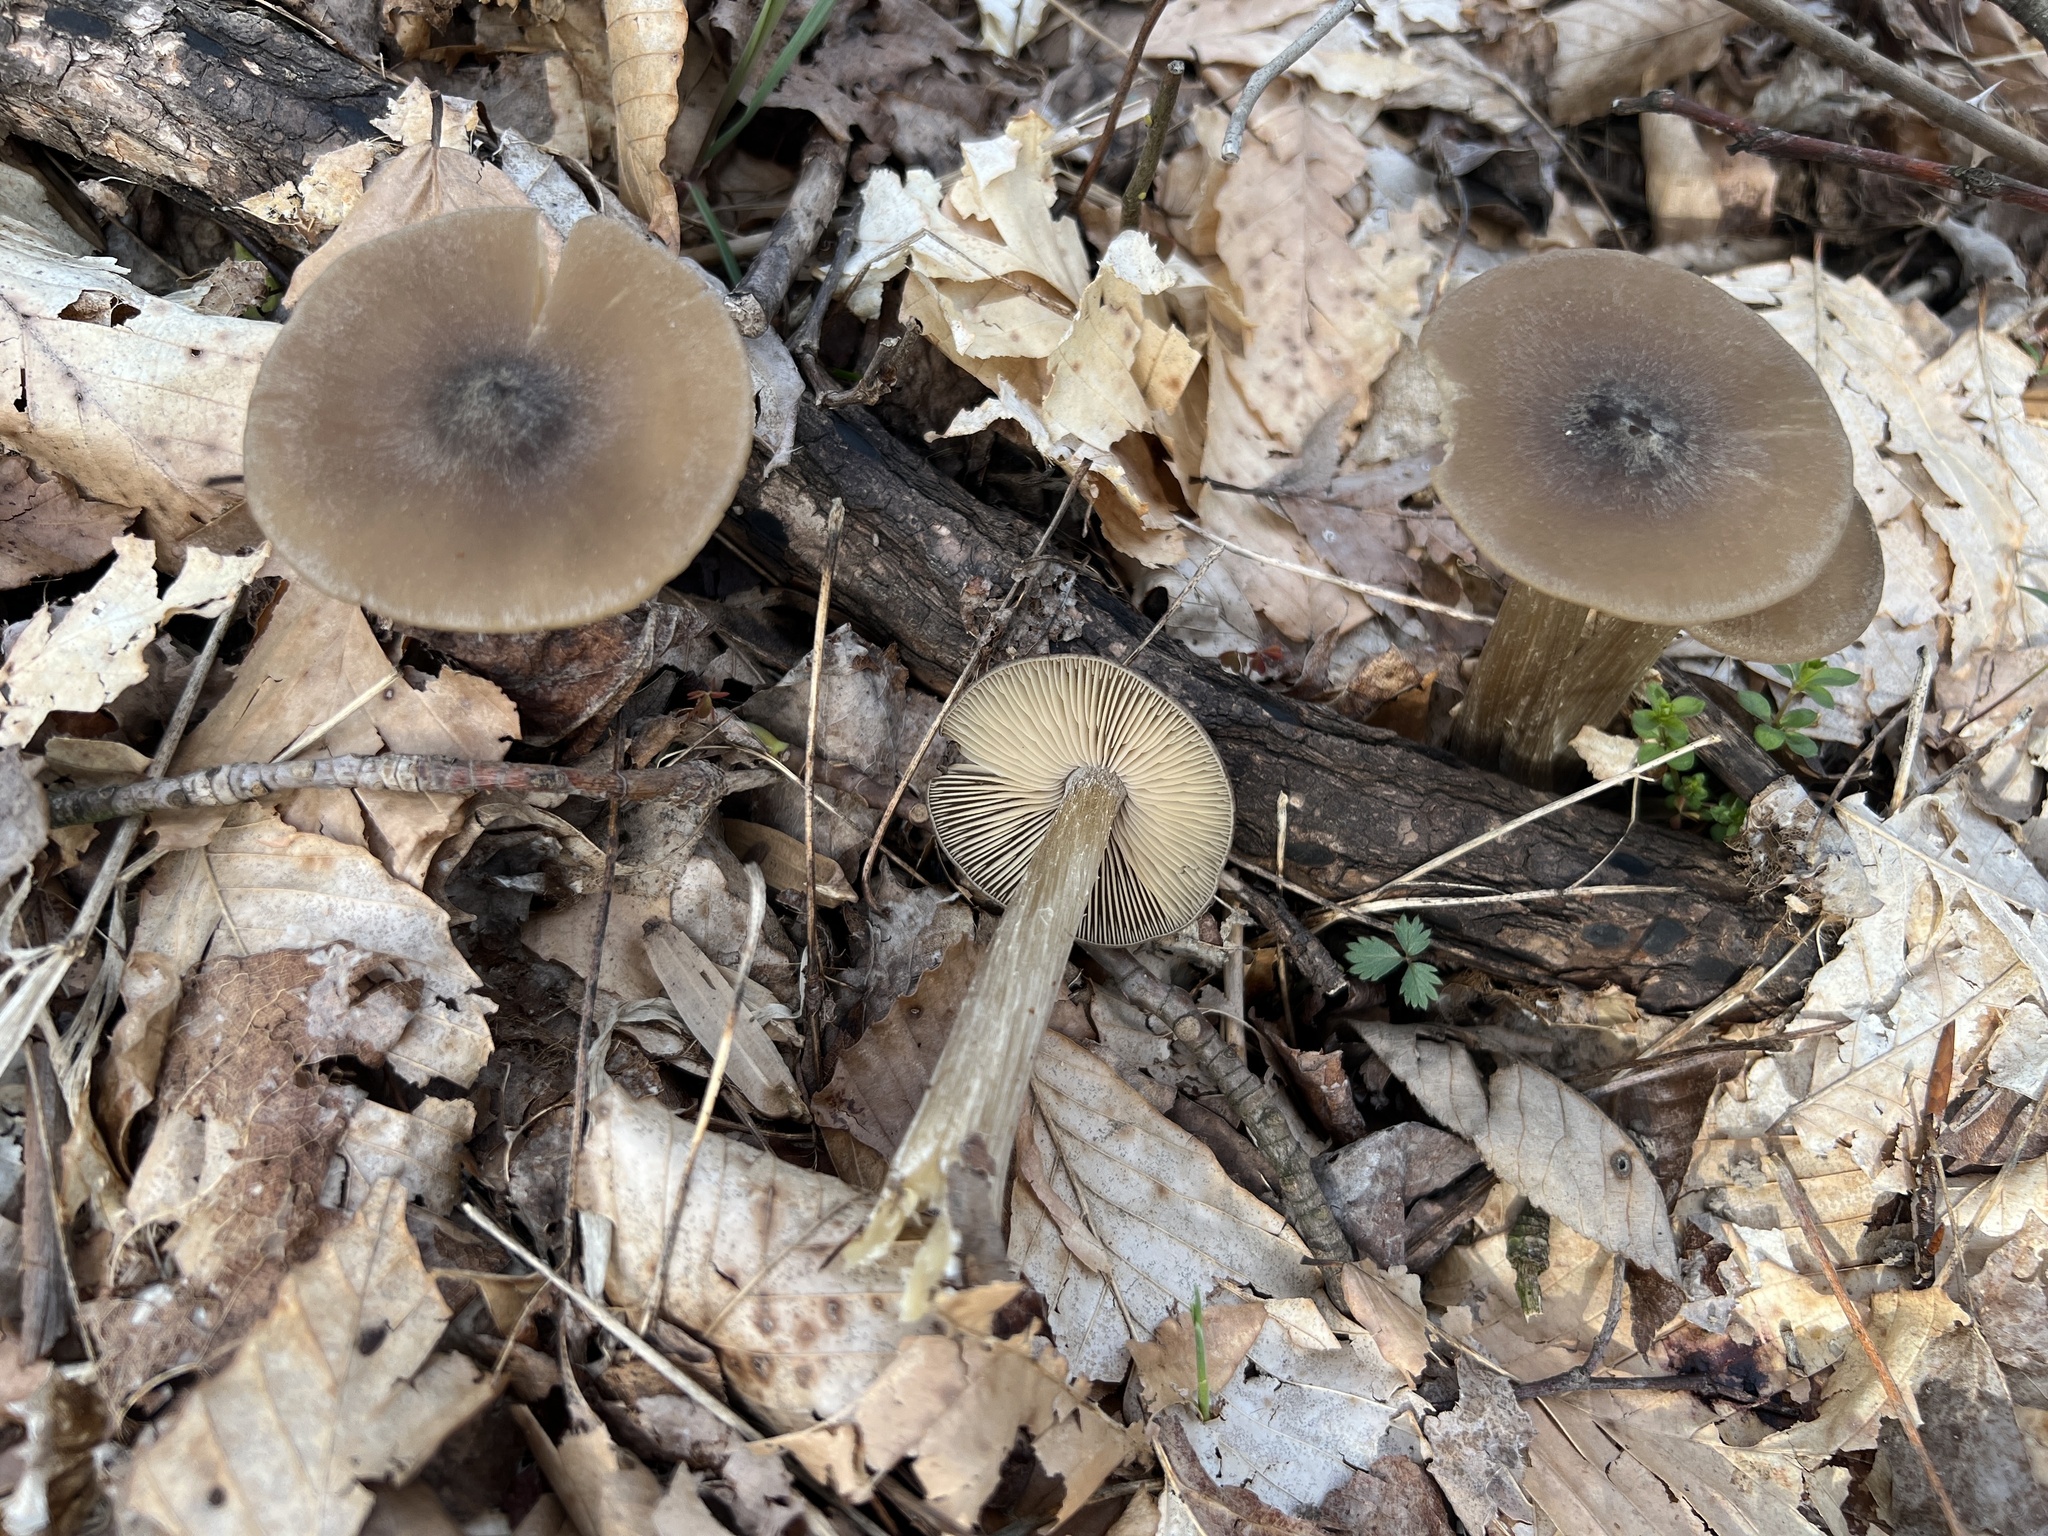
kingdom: Fungi
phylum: Basidiomycota
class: Agaricomycetes
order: Agaricales
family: Entolomataceae
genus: Entoloma
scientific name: Entoloma vernum
